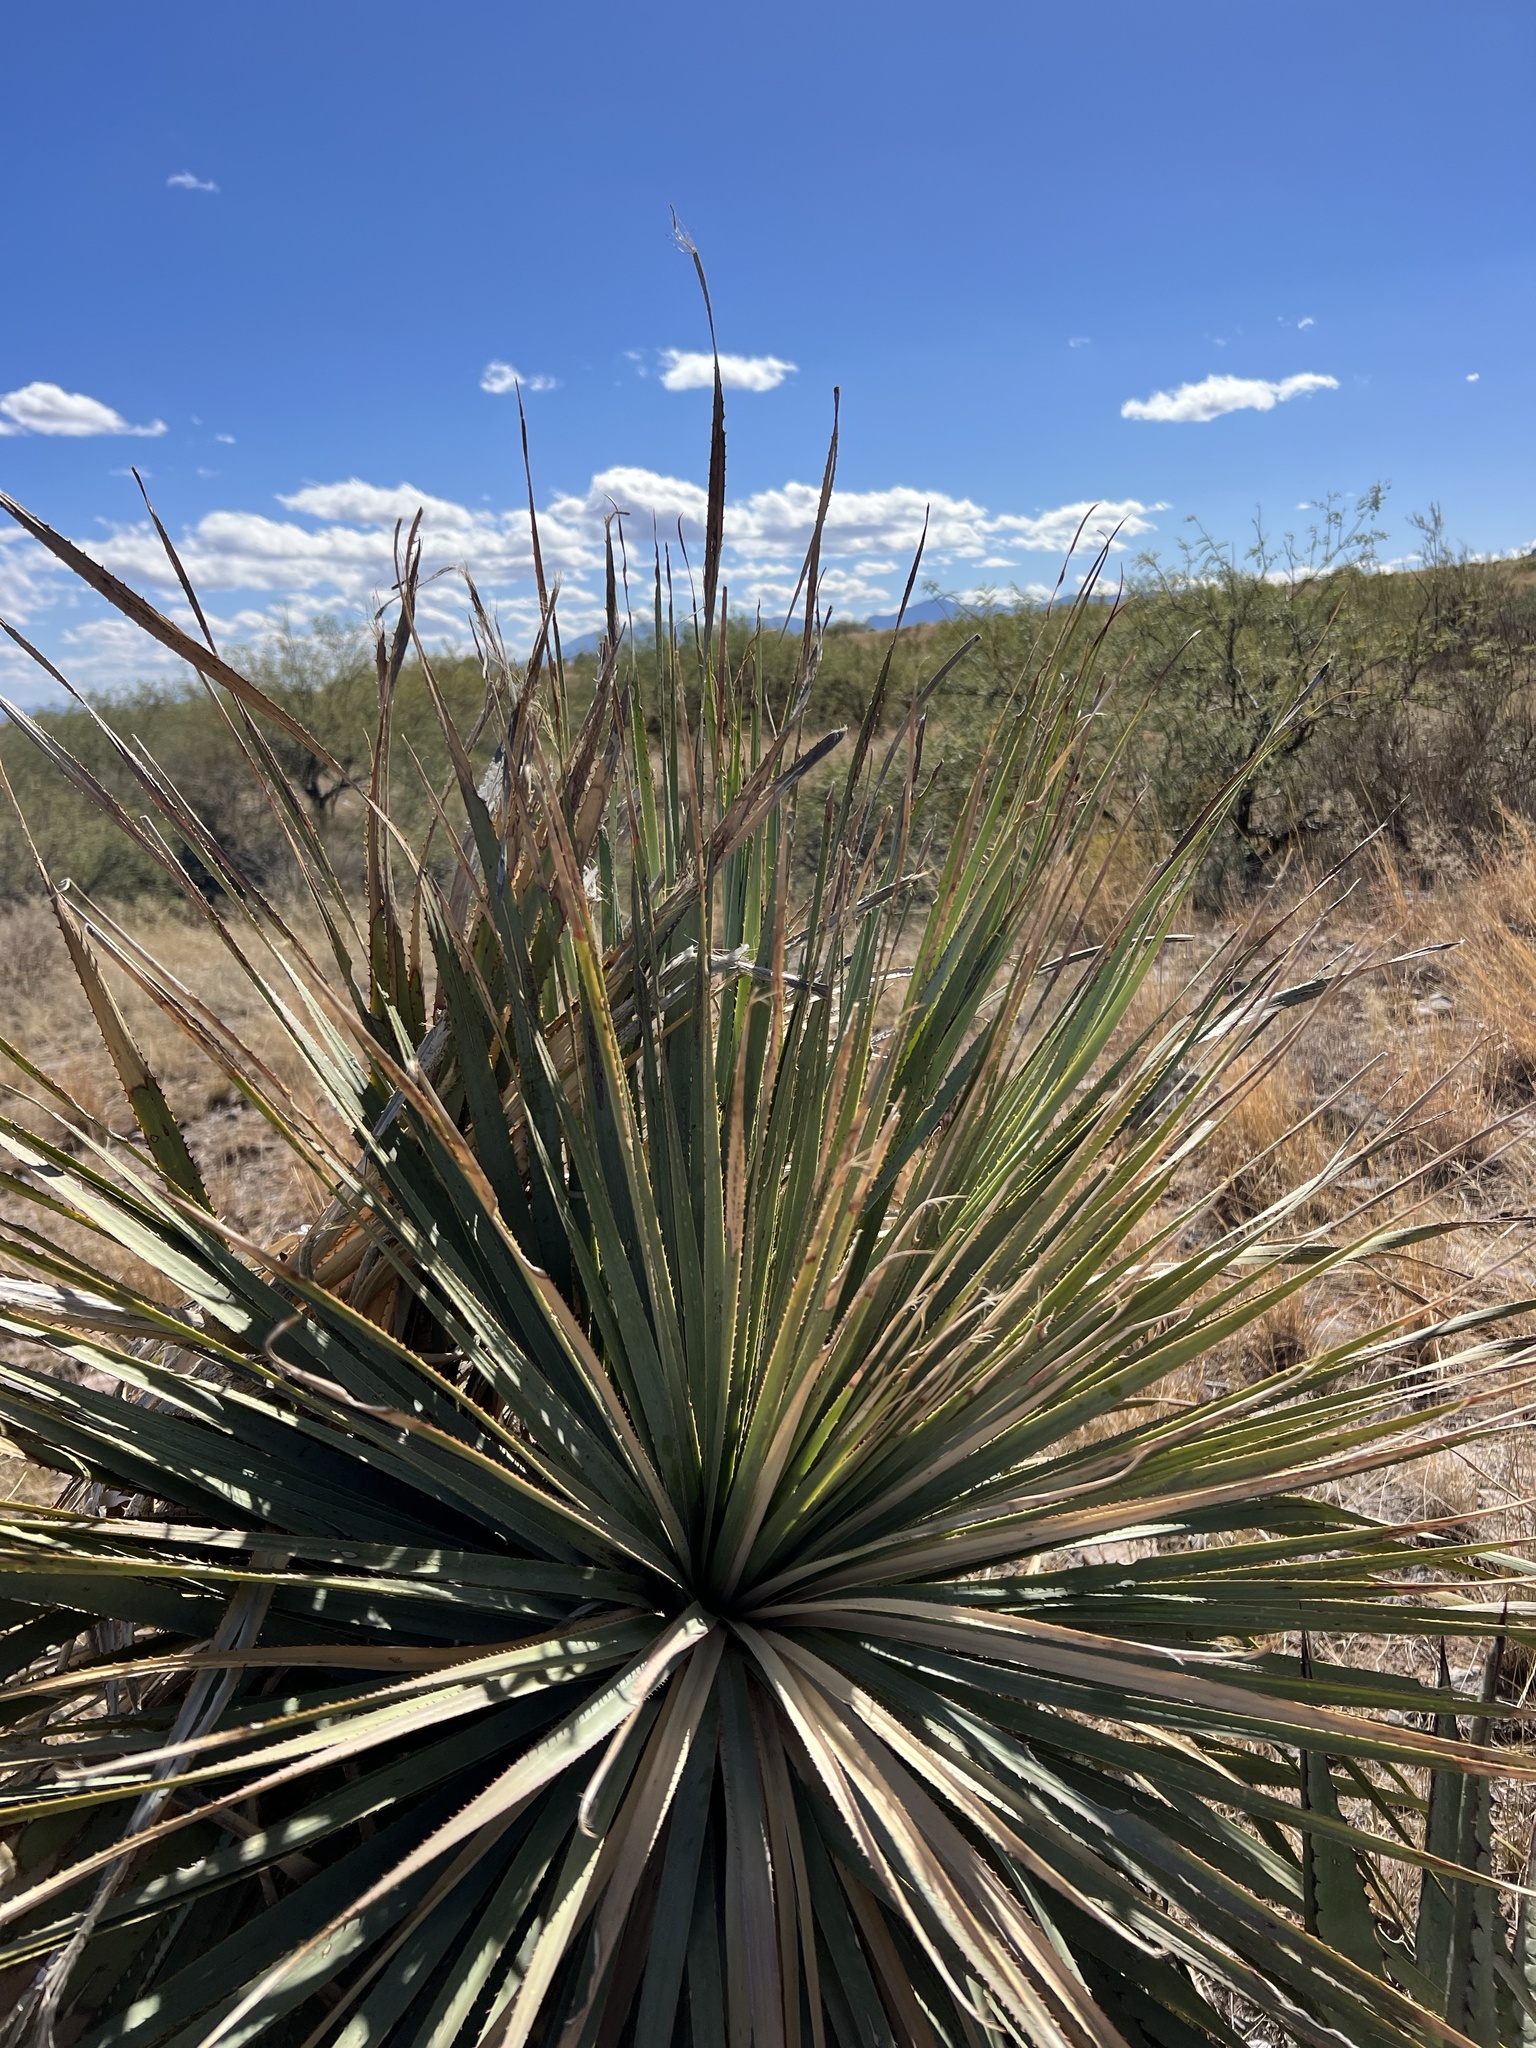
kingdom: Plantae
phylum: Tracheophyta
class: Liliopsida
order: Asparagales
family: Asparagaceae
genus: Dasylirion
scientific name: Dasylirion wheeleri
